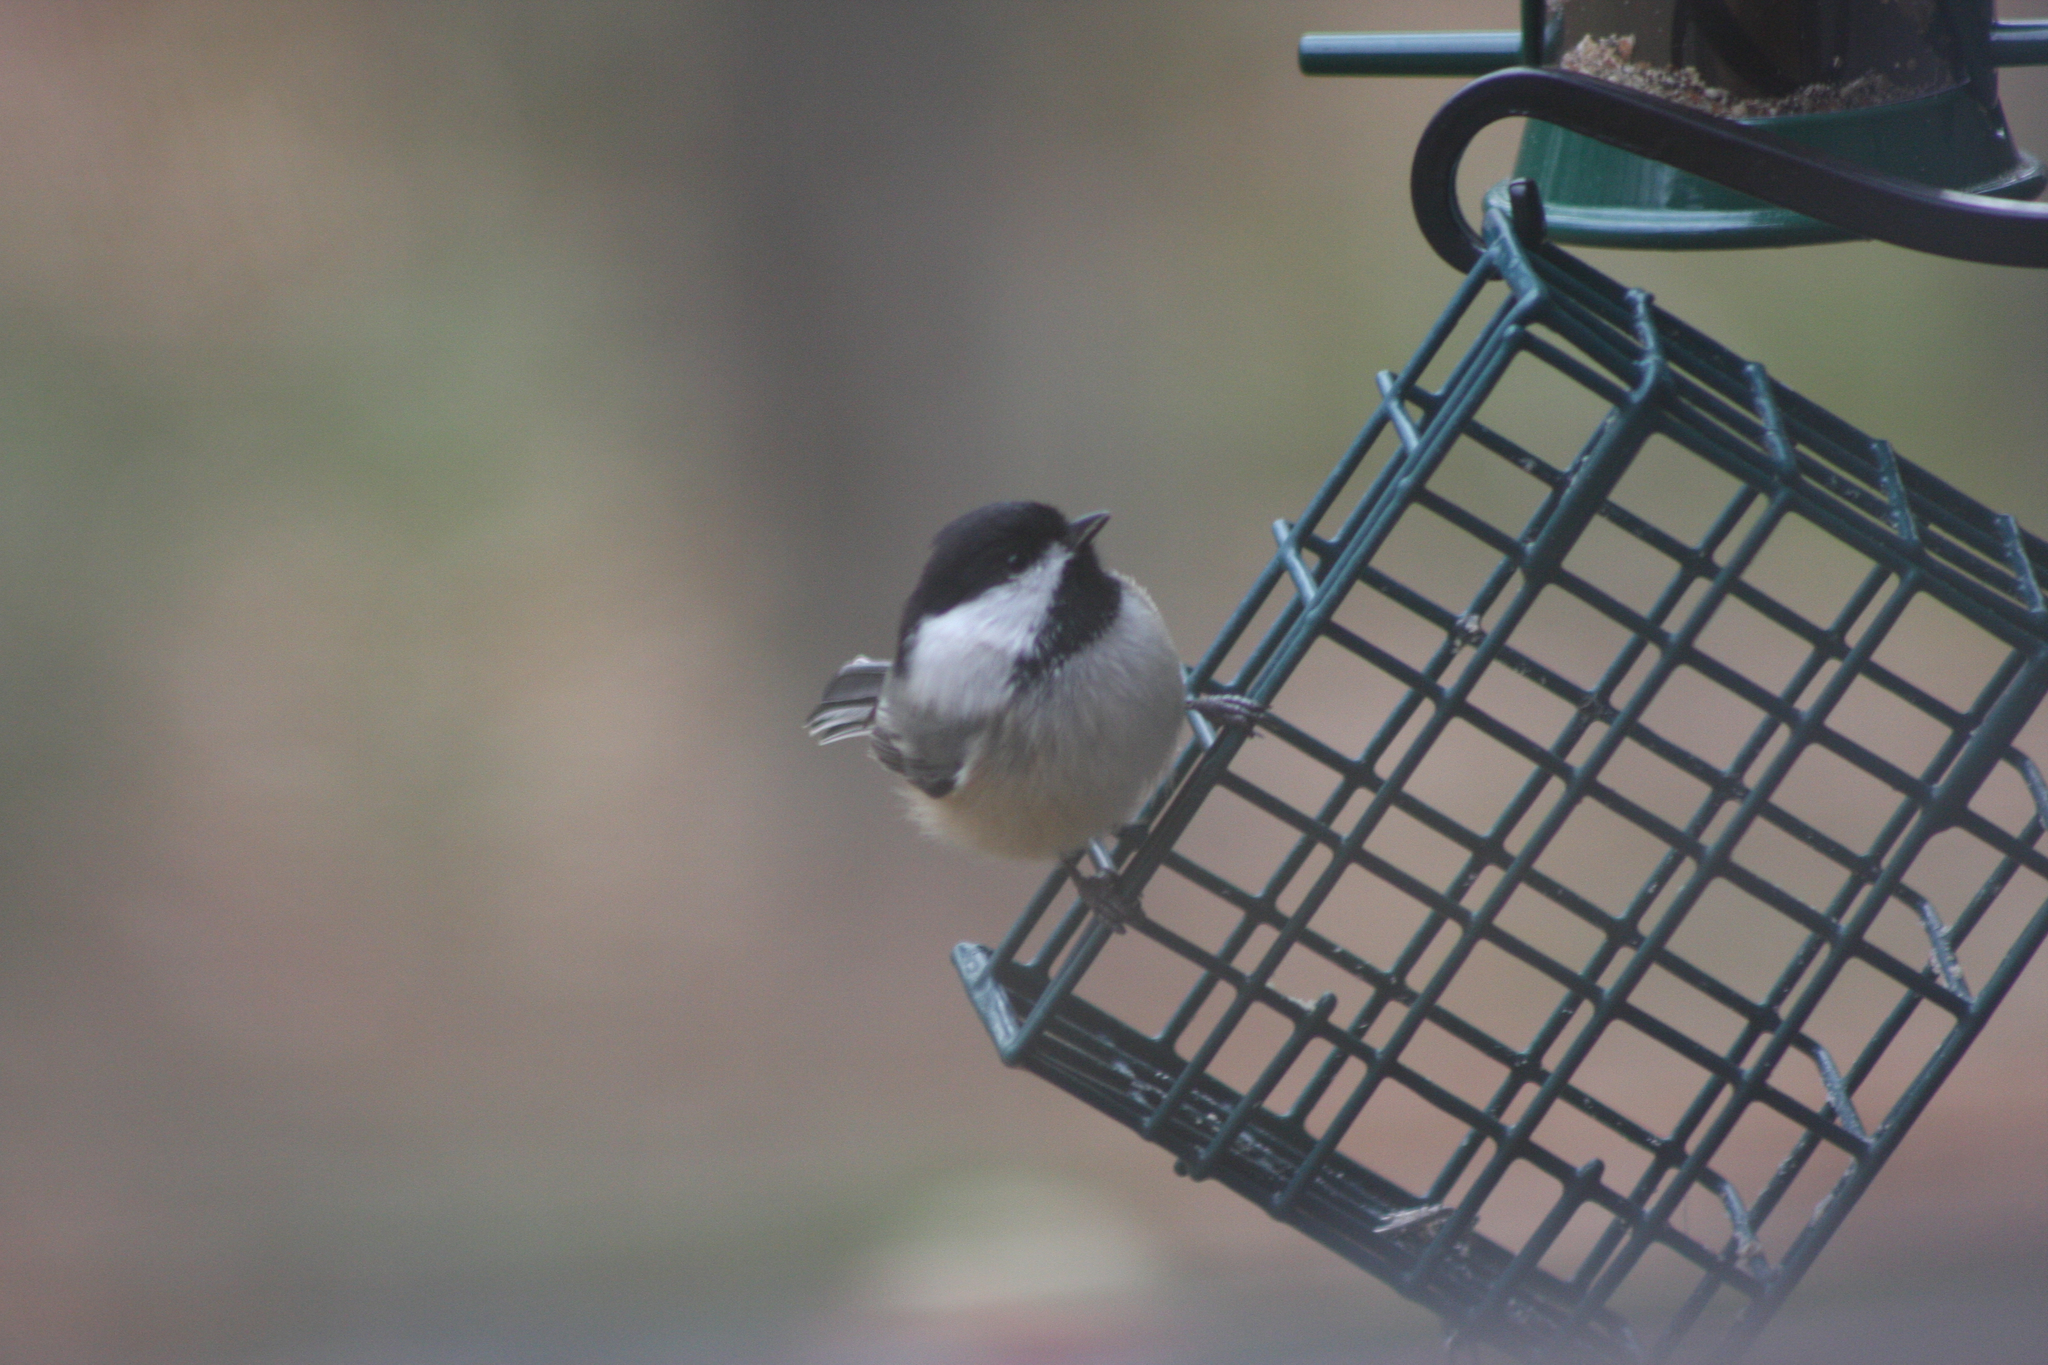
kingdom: Animalia
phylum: Chordata
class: Aves
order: Passeriformes
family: Paridae
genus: Poecile
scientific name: Poecile atricapillus
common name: Black-capped chickadee
